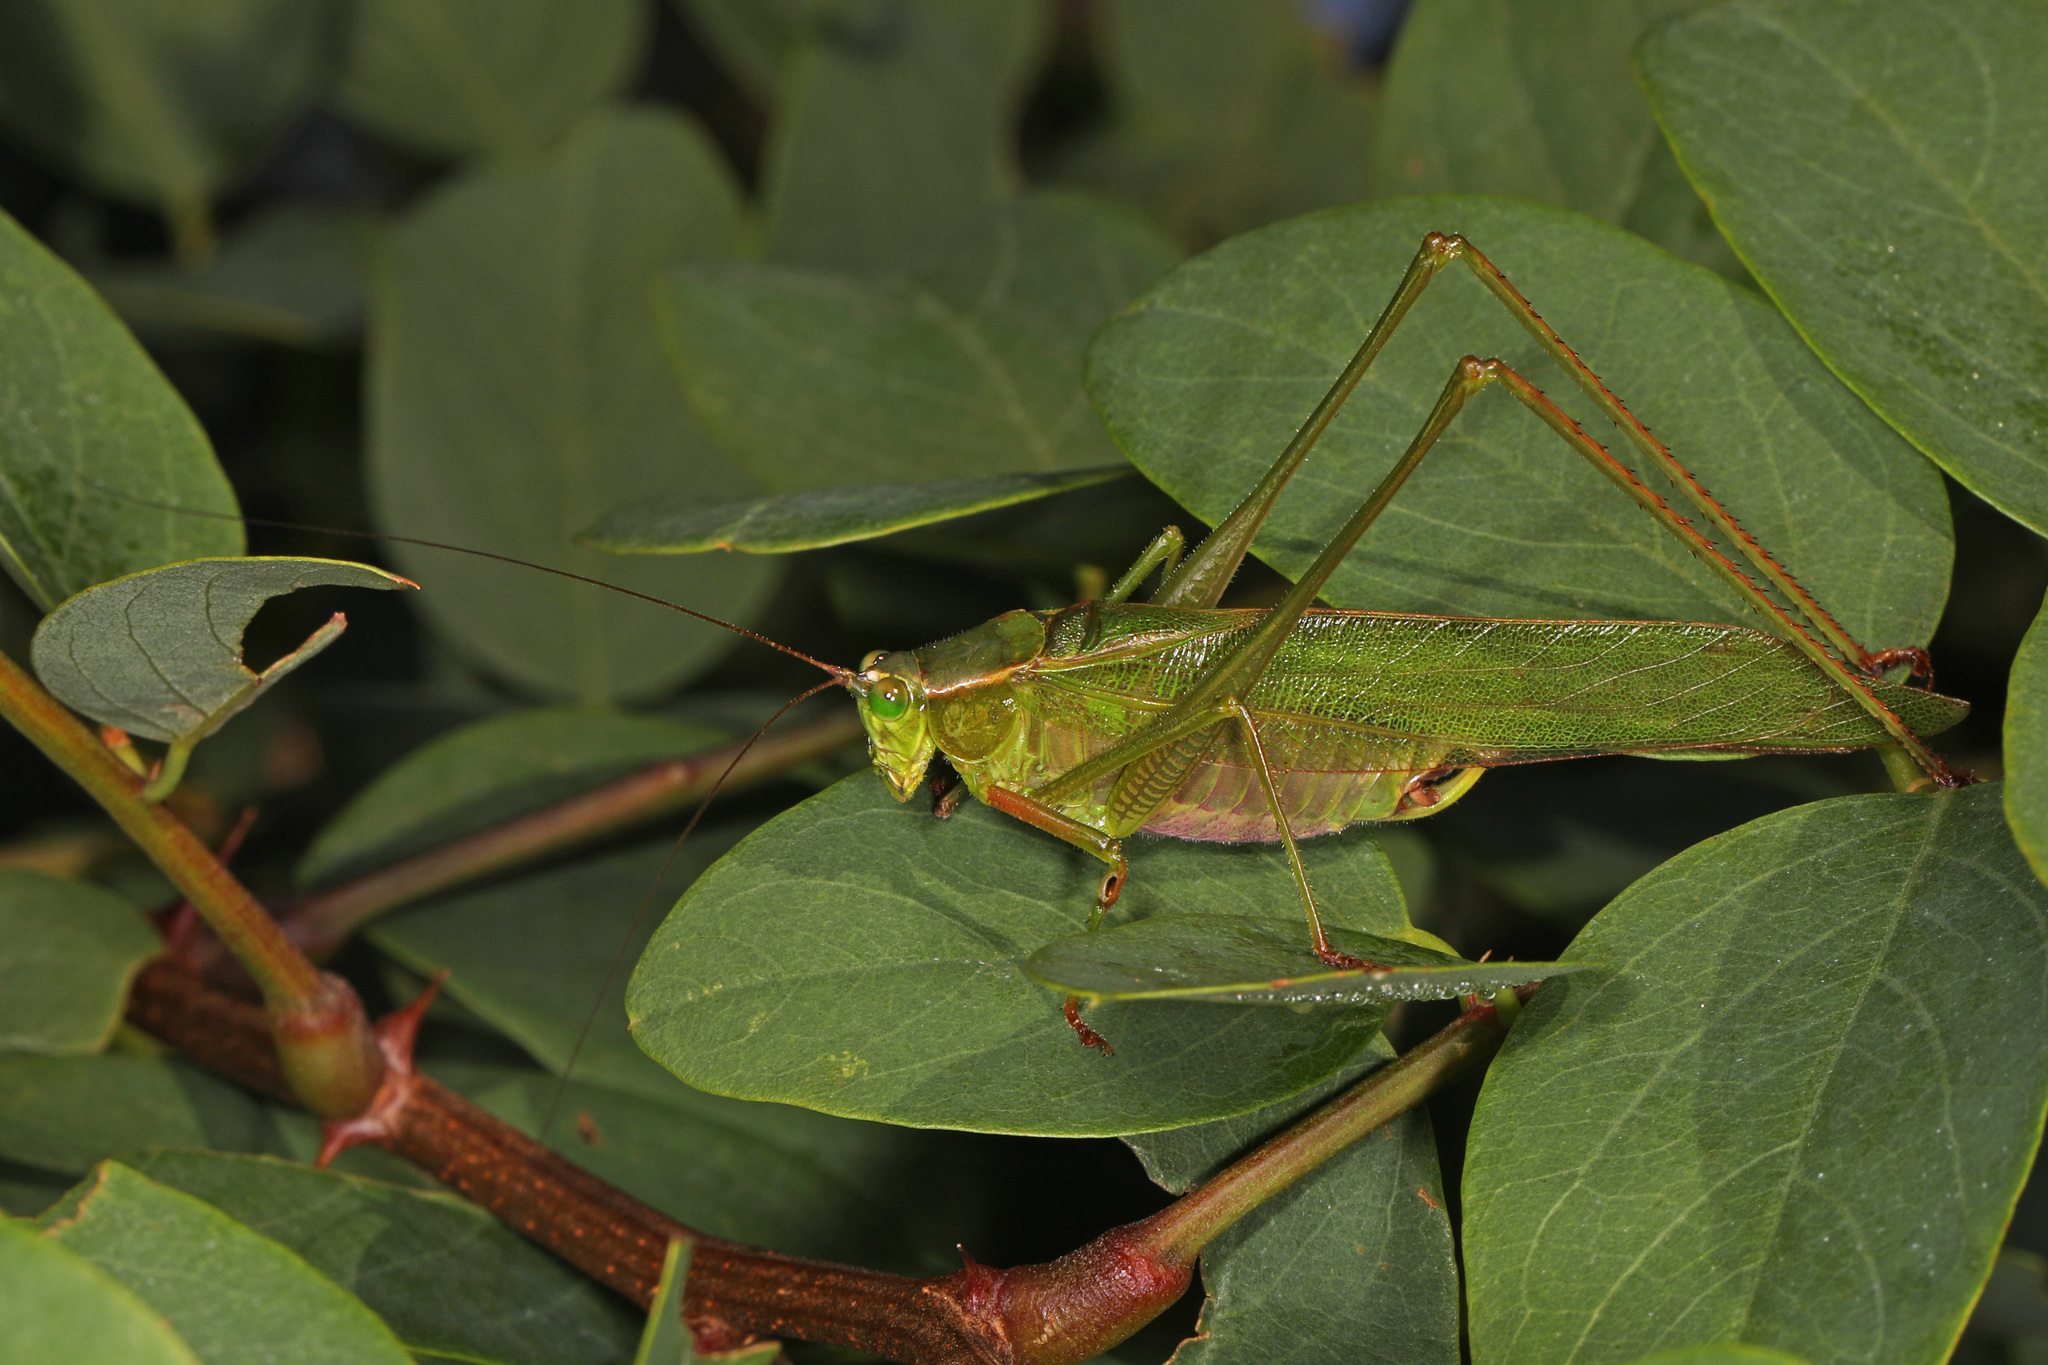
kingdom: Animalia
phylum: Arthropoda
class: Insecta
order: Orthoptera
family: Tettigoniidae
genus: Scudderia
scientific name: Scudderia furcata
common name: Fork-tailed bush katydid
